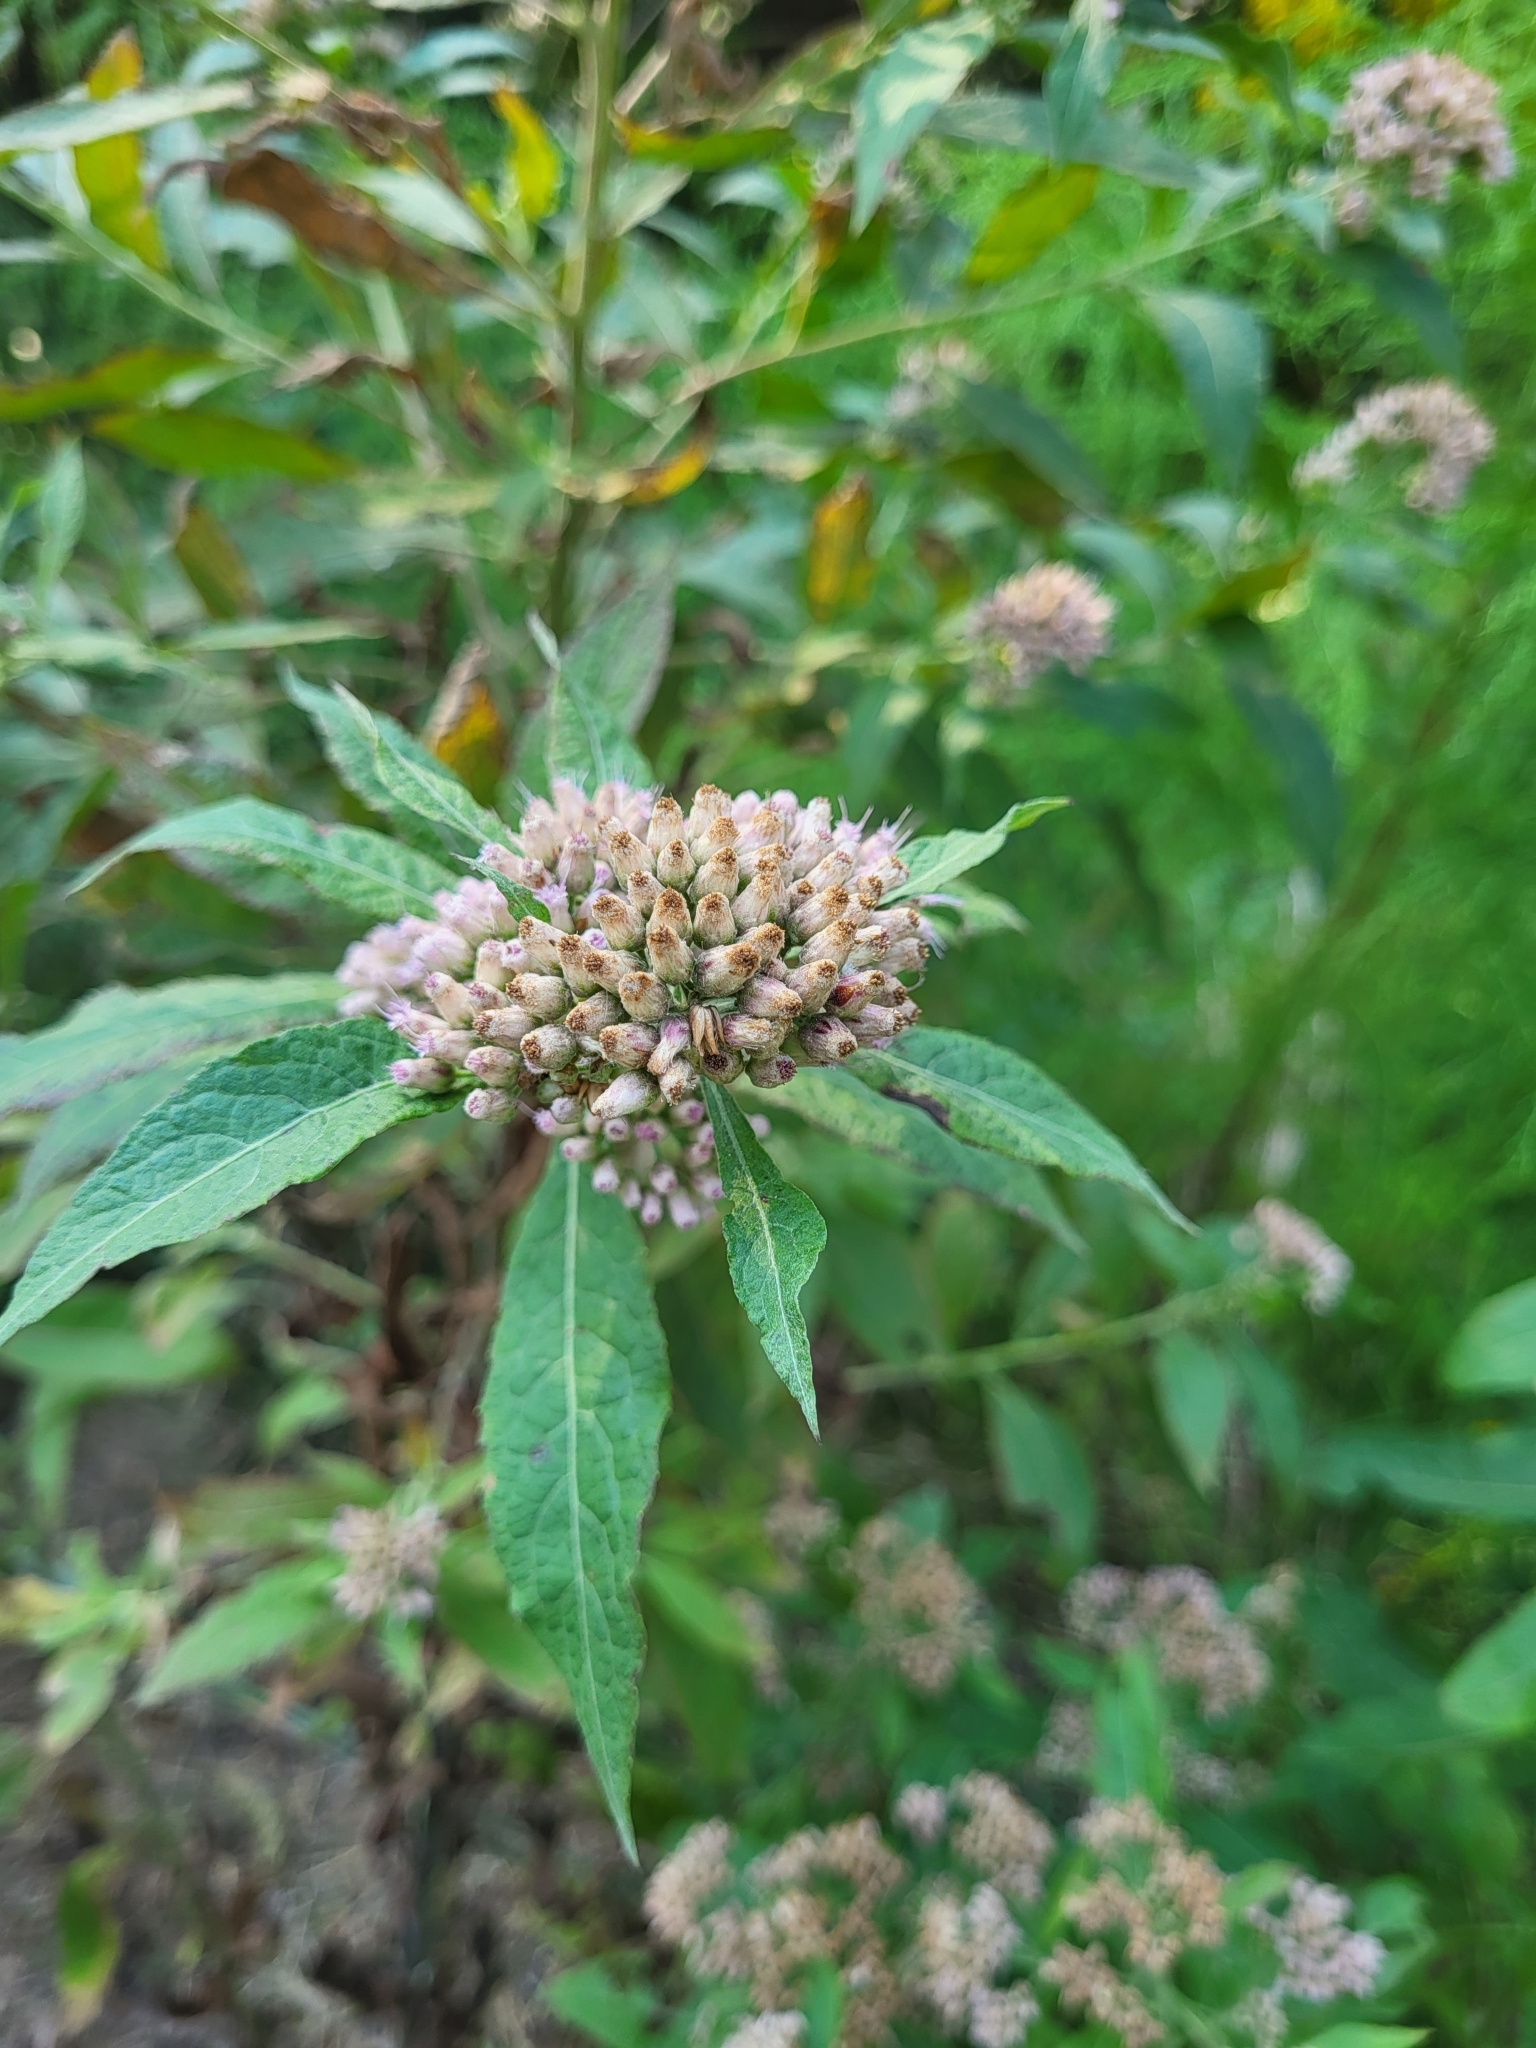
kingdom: Plantae
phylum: Tracheophyta
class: Magnoliopsida
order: Asterales
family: Asteraceae
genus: Pluchea
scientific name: Pluchea camphorata
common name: Camphor pluchea
